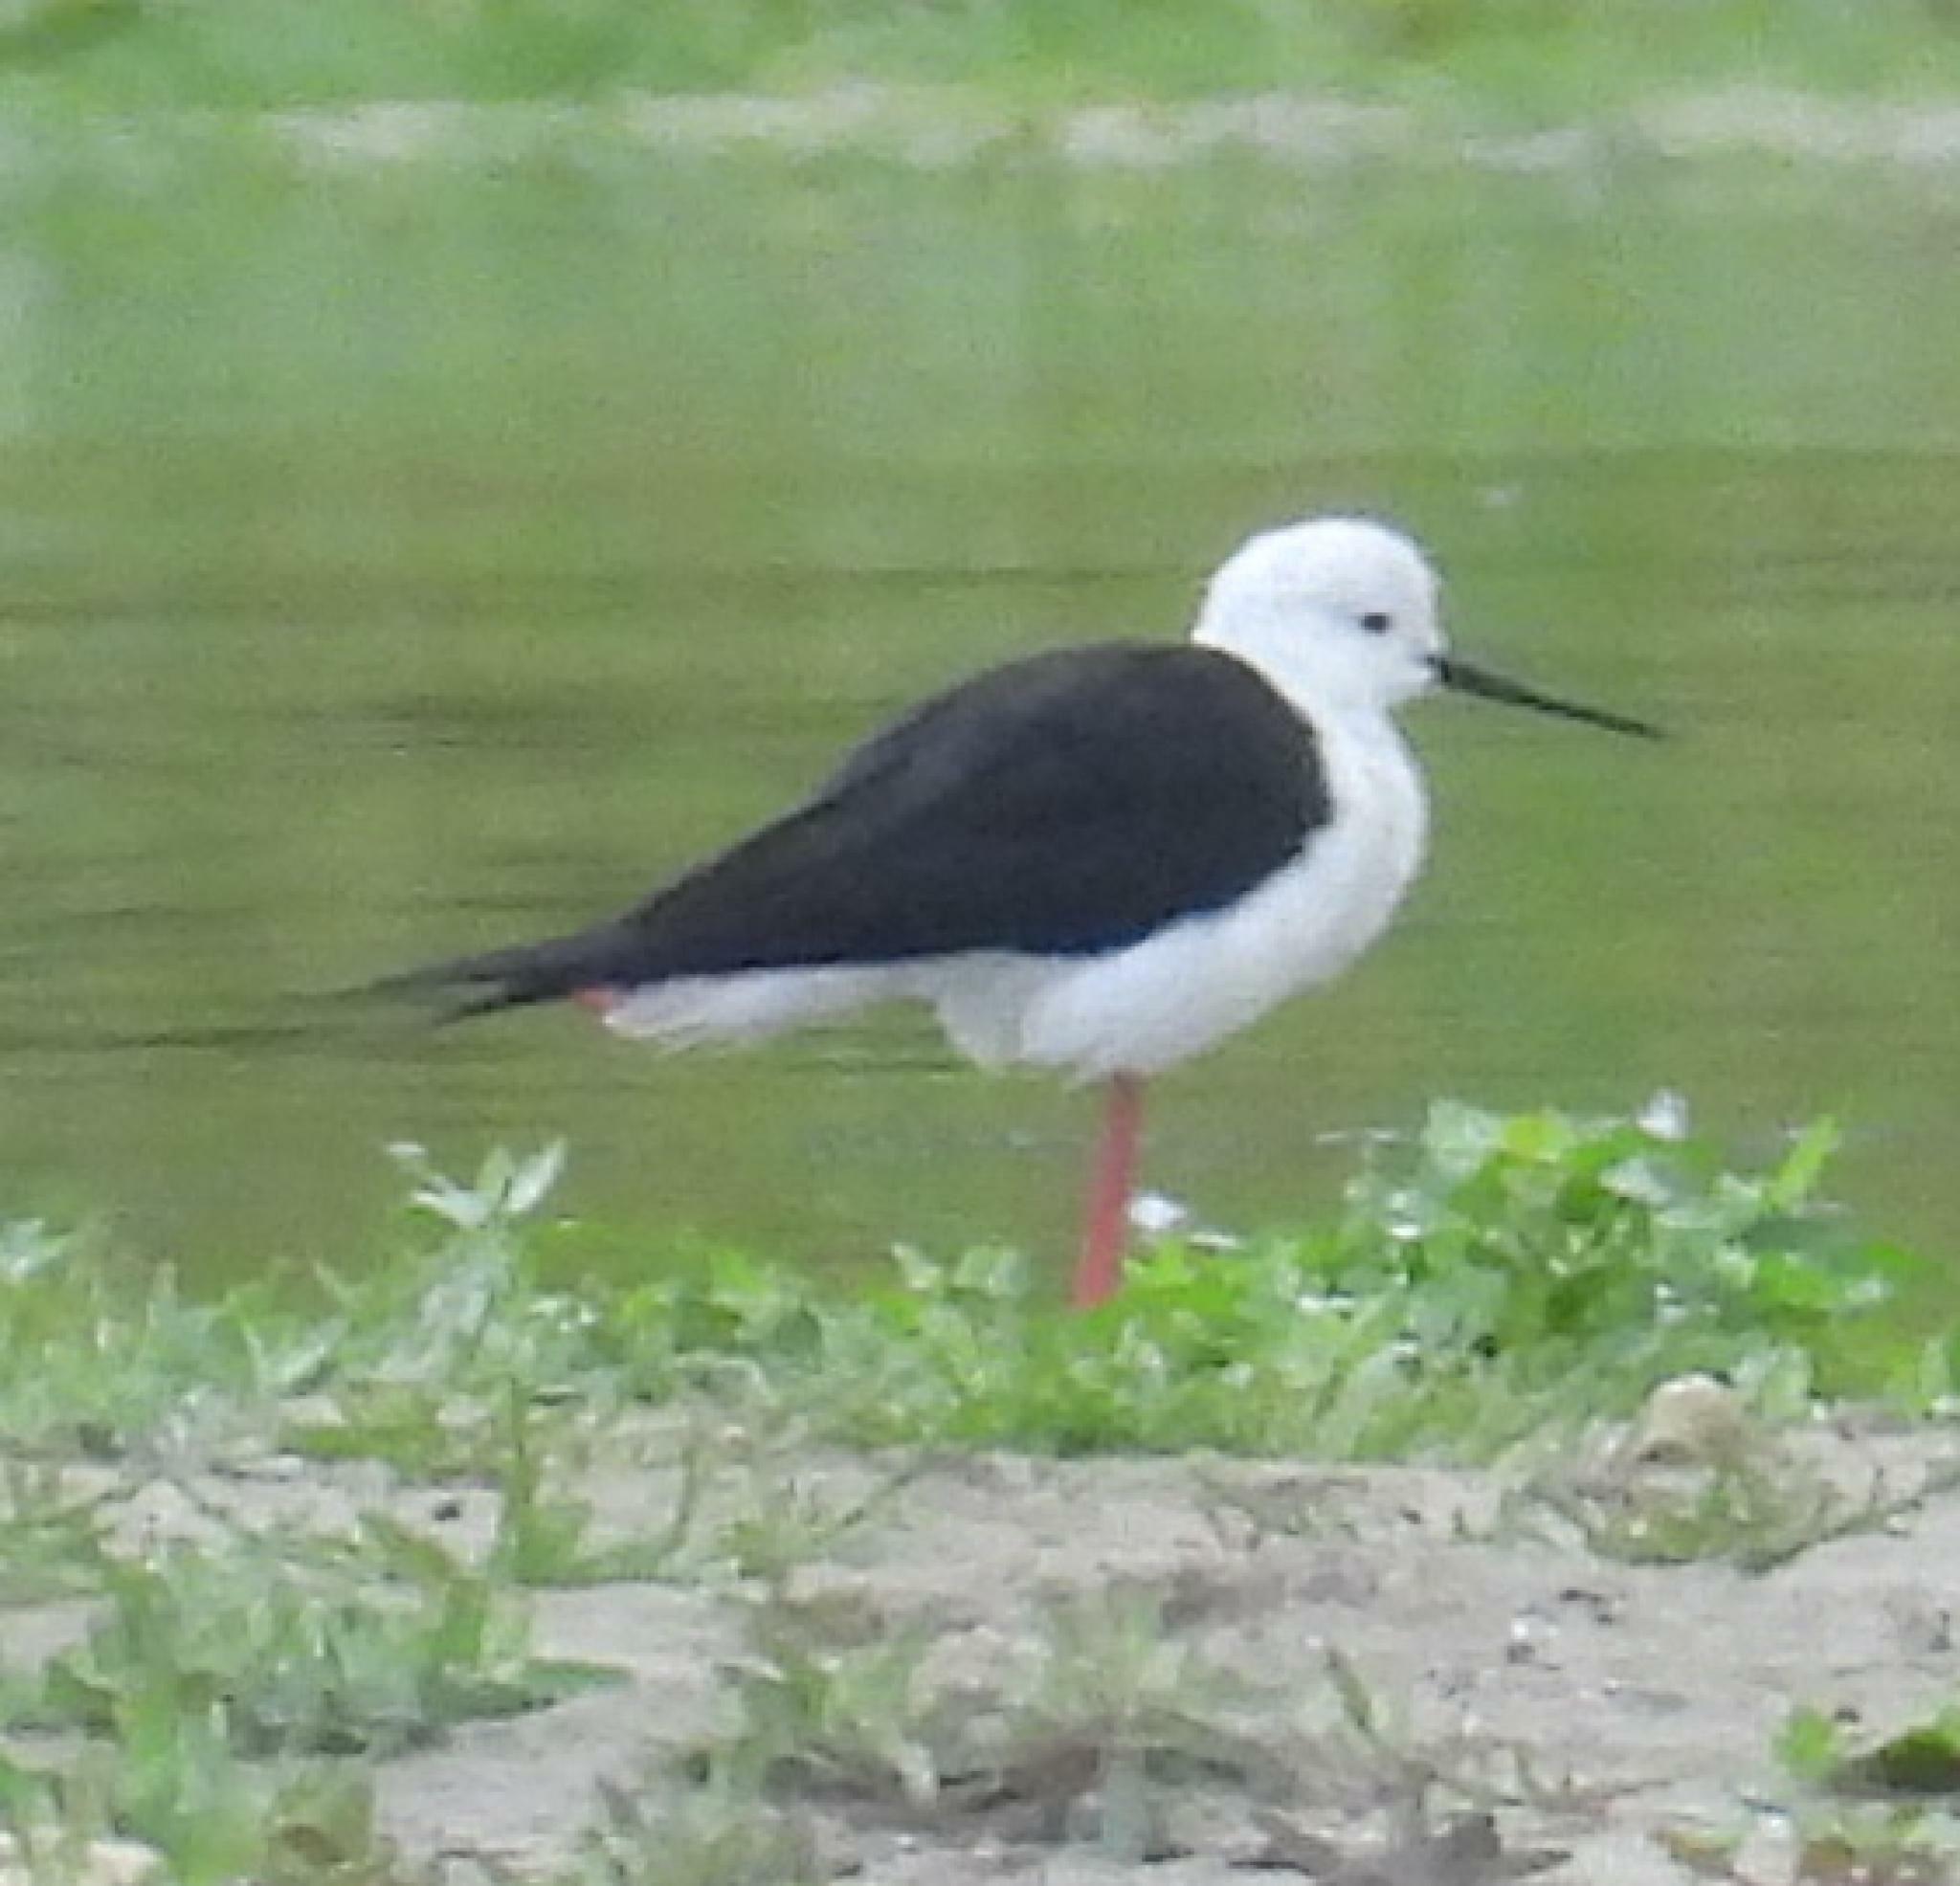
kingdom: Animalia
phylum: Chordata
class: Aves
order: Charadriiformes
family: Recurvirostridae
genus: Himantopus
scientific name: Himantopus himantopus
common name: Black-winged stilt
